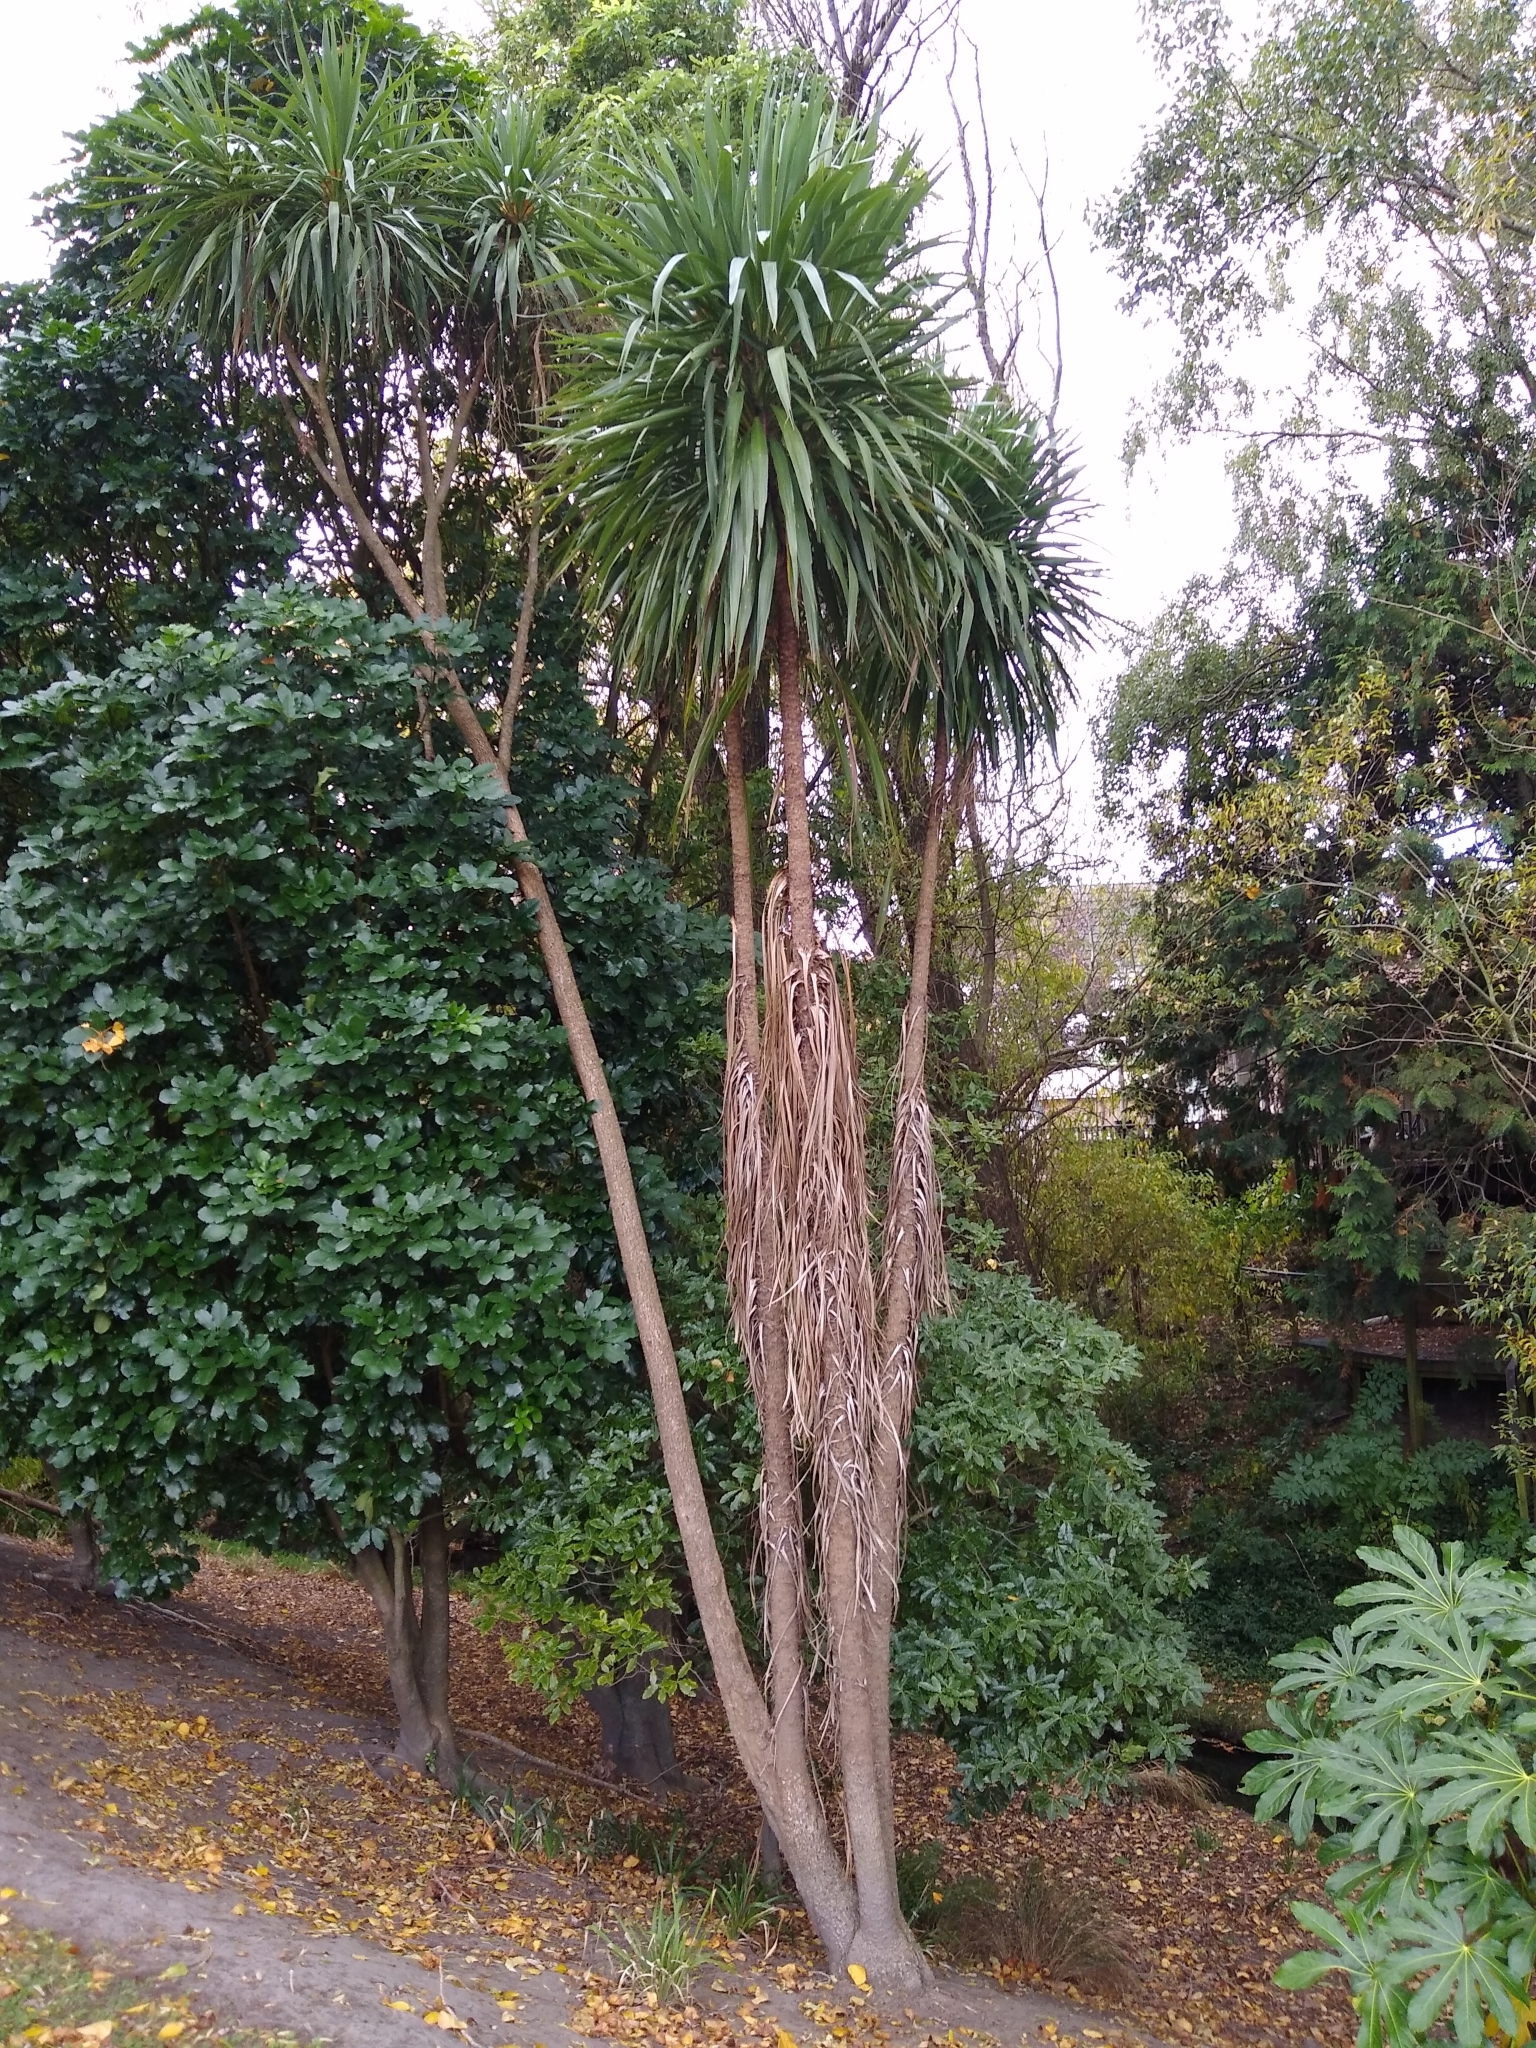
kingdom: Plantae
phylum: Tracheophyta
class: Liliopsida
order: Asparagales
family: Asparagaceae
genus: Cordyline
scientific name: Cordyline australis
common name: Cabbage-palm
